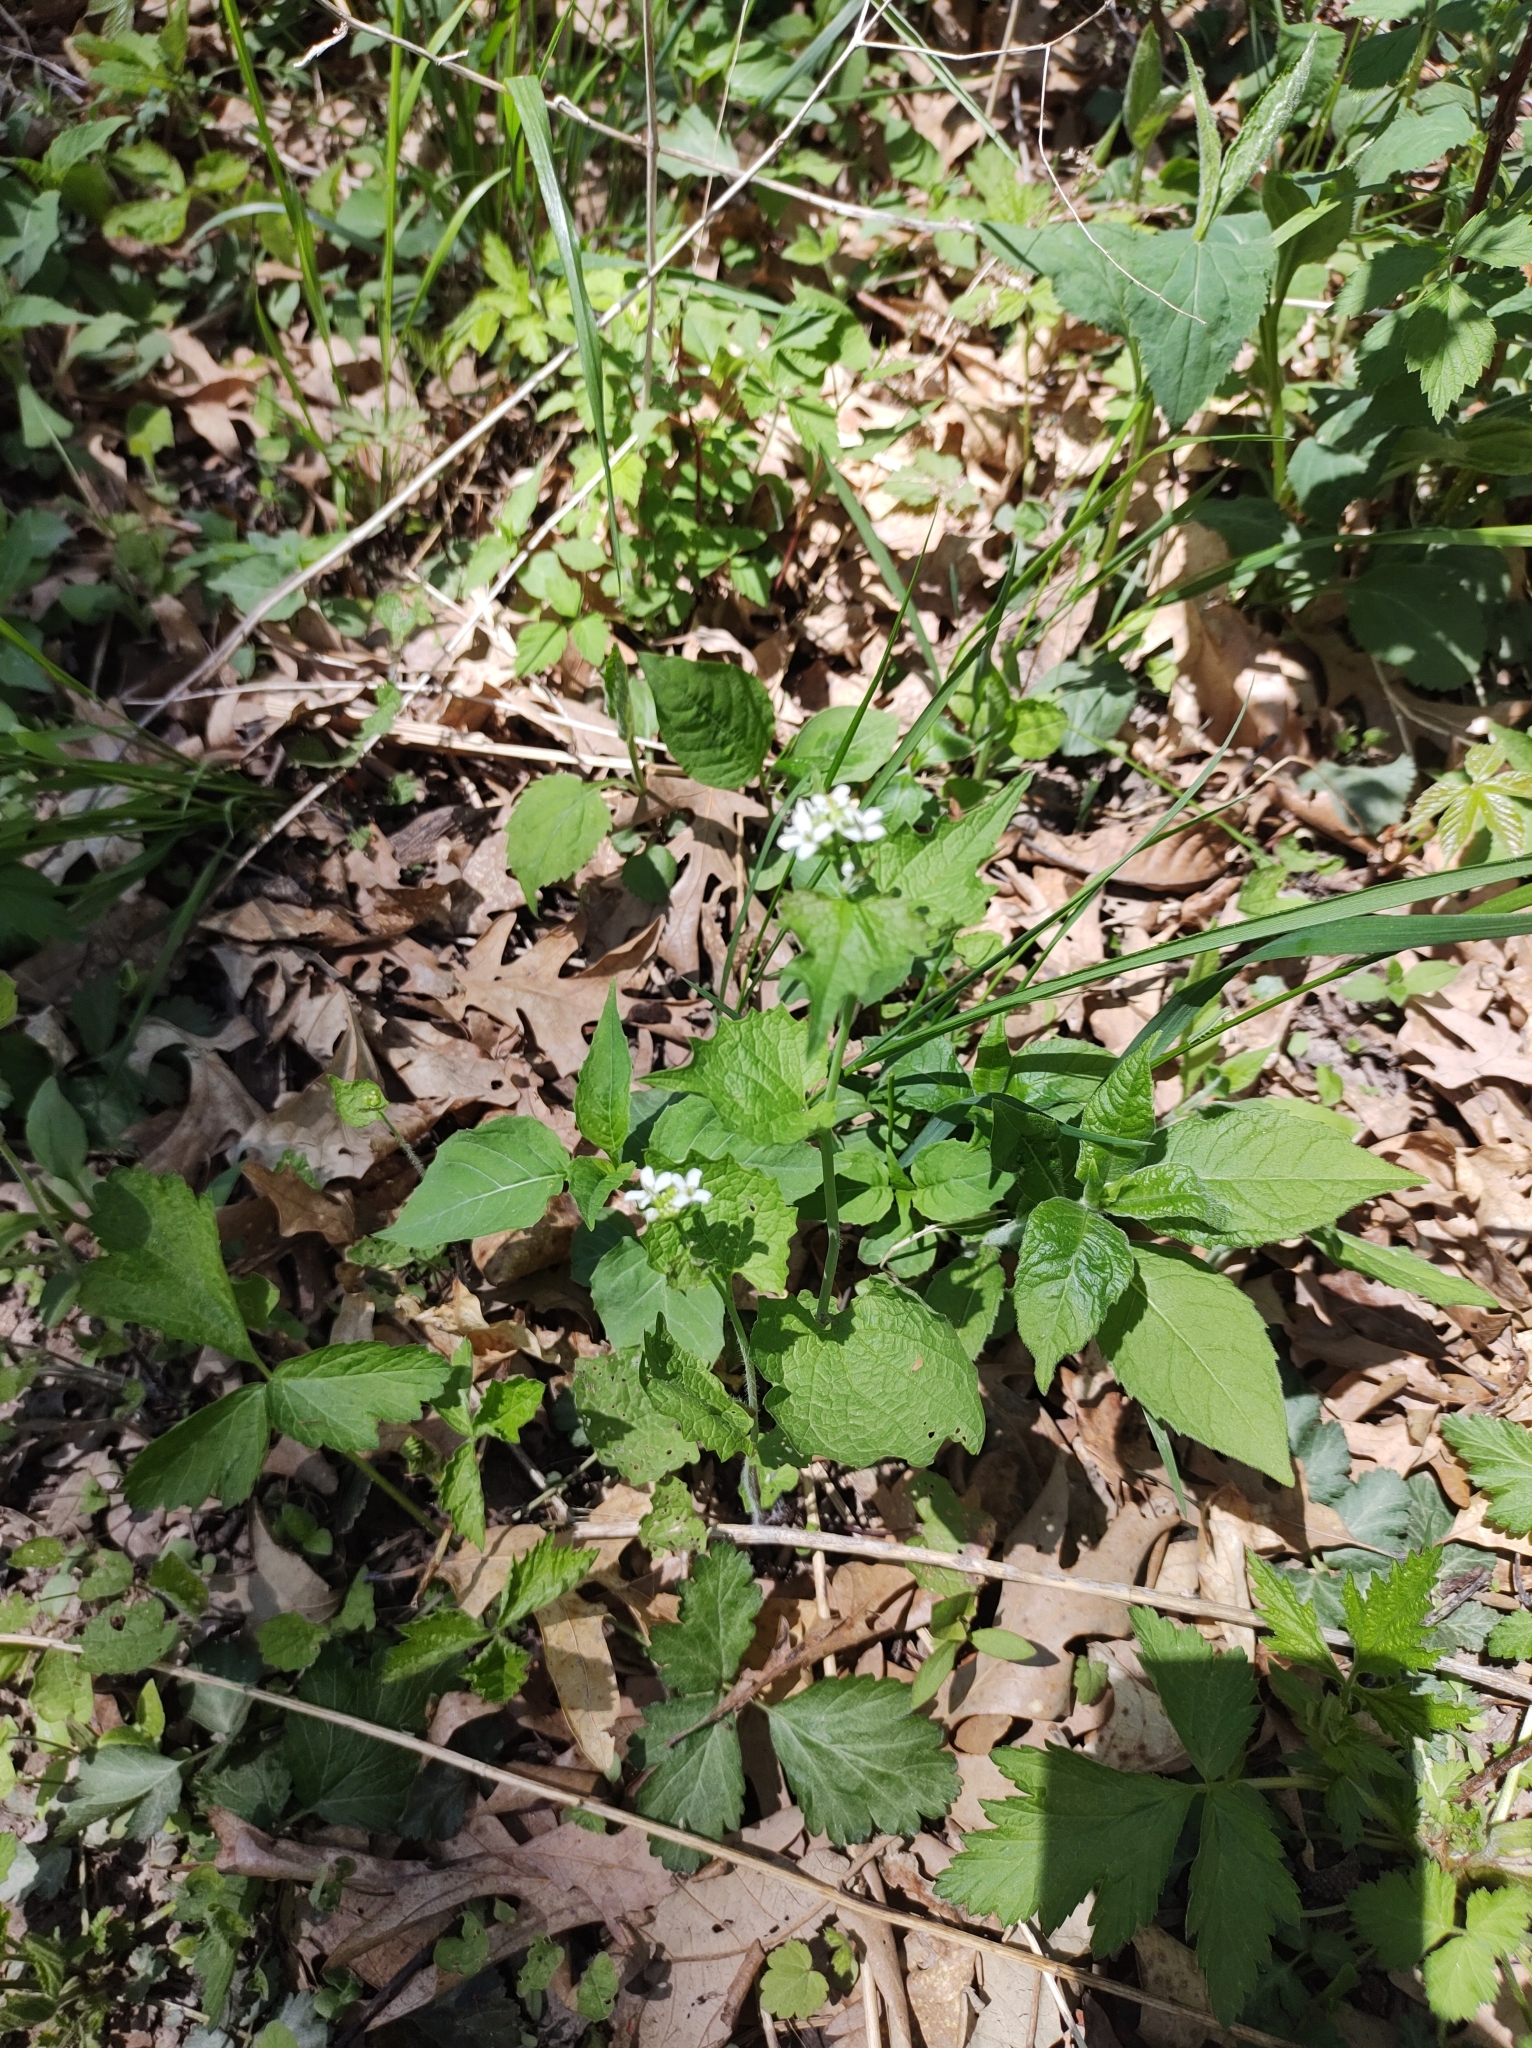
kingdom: Plantae
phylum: Tracheophyta
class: Magnoliopsida
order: Brassicales
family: Brassicaceae
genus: Alliaria
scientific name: Alliaria petiolata
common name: Garlic mustard
